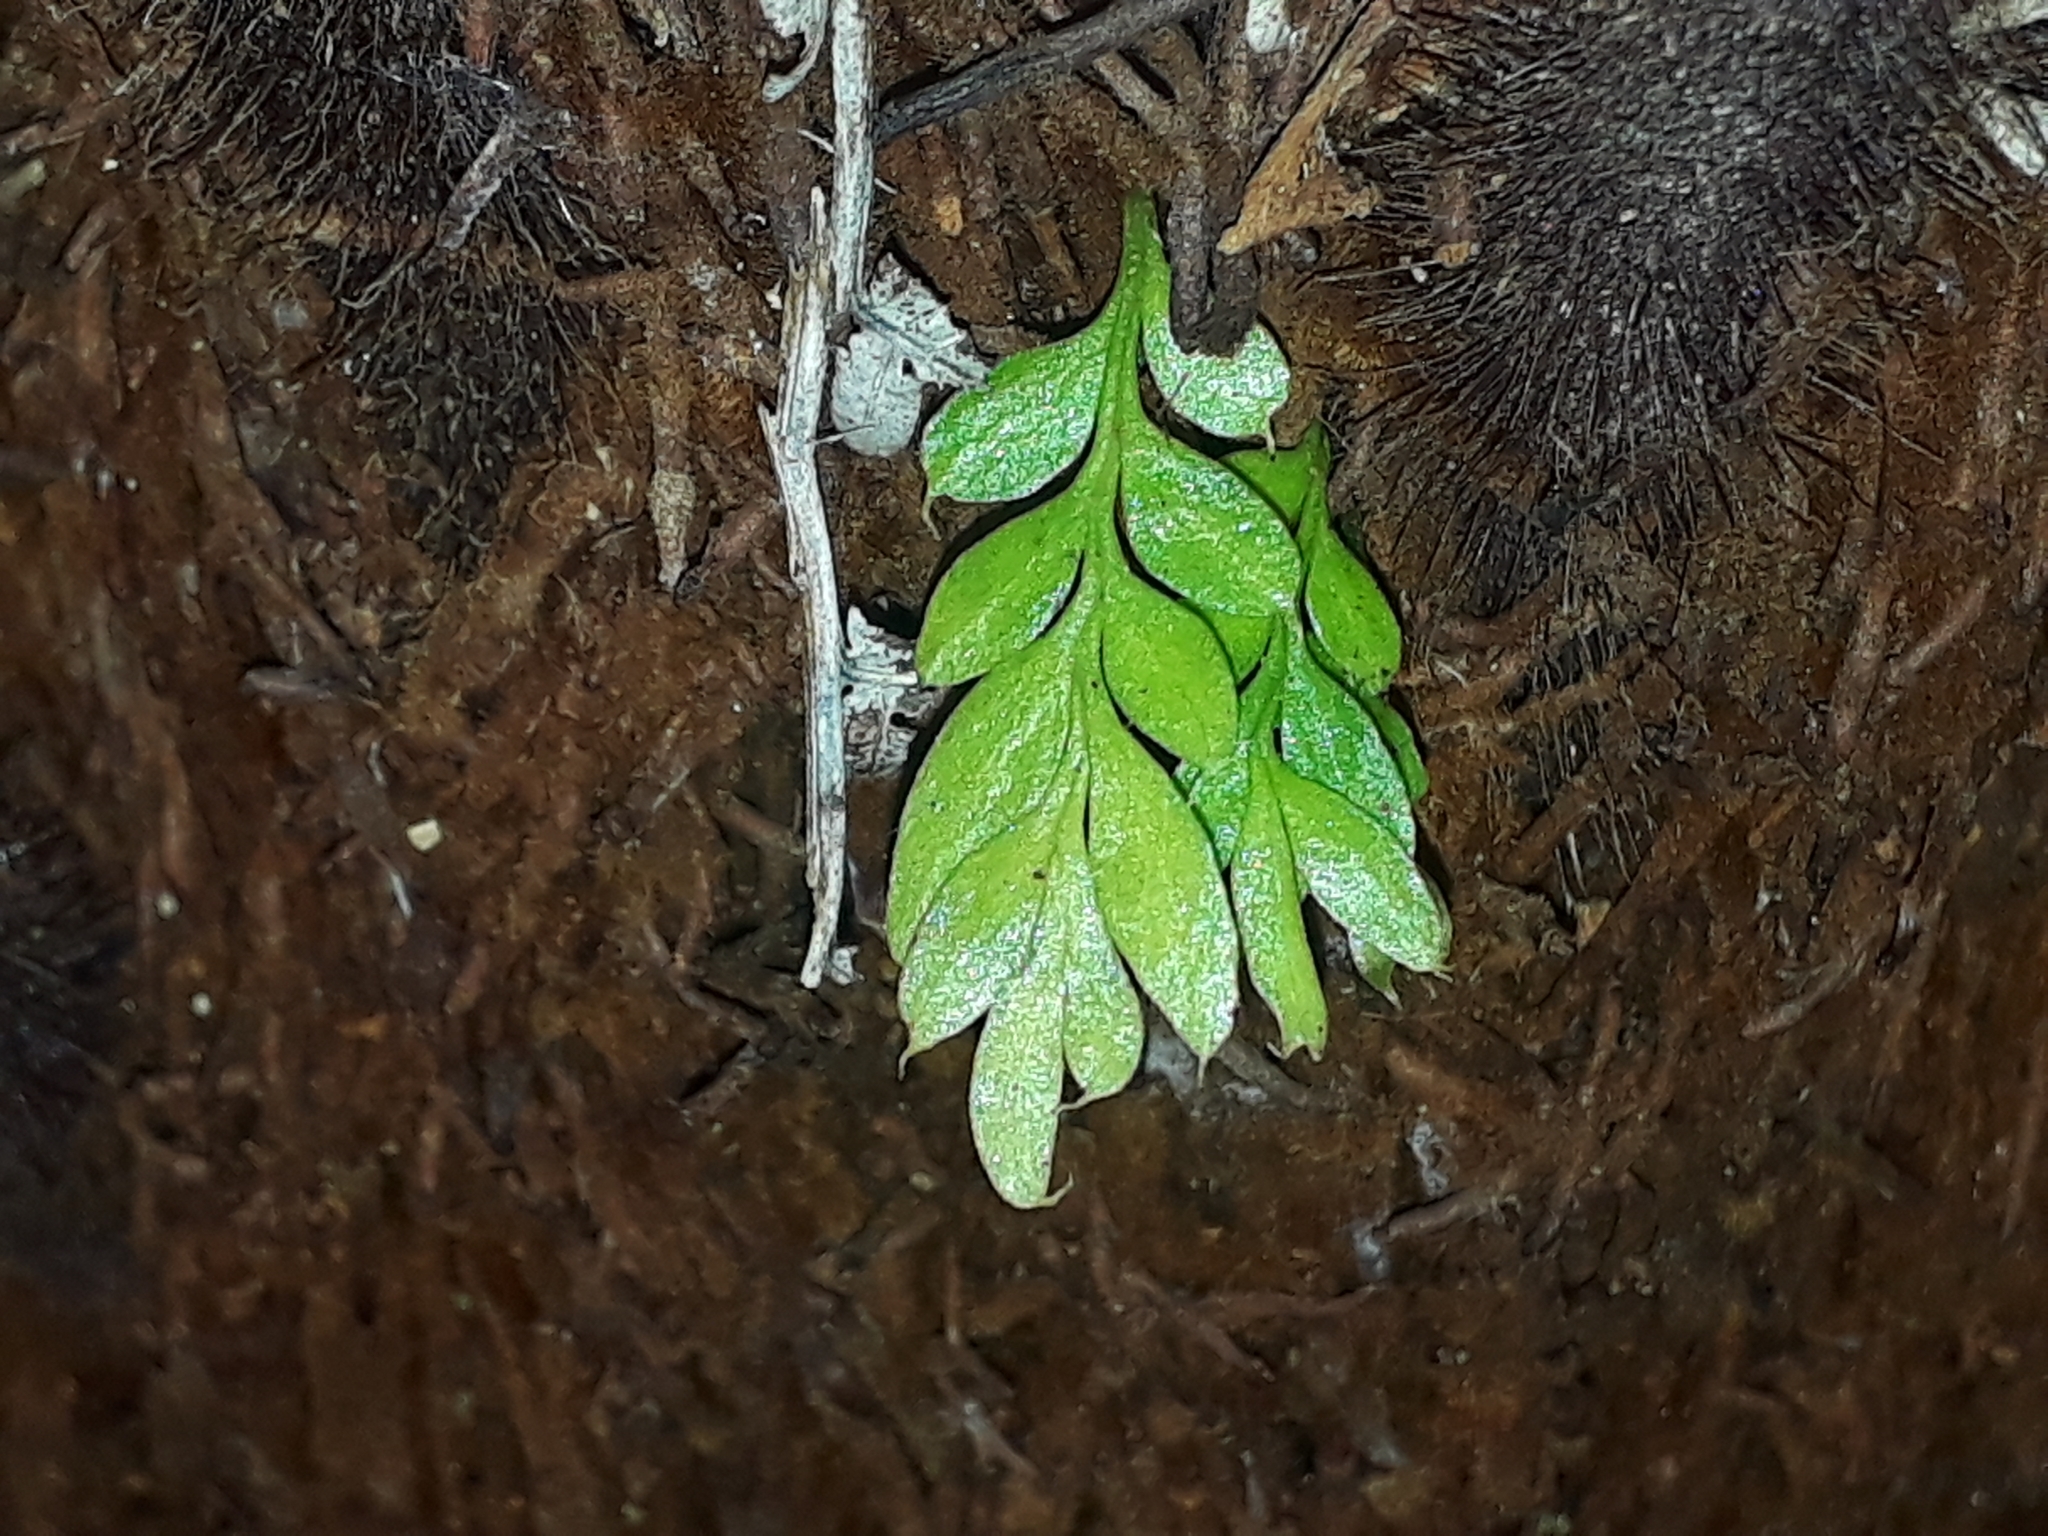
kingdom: Plantae
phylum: Tracheophyta
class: Polypodiopsida
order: Psilotales
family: Psilotaceae
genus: Tmesipteris
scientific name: Tmesipteris lanceolata
